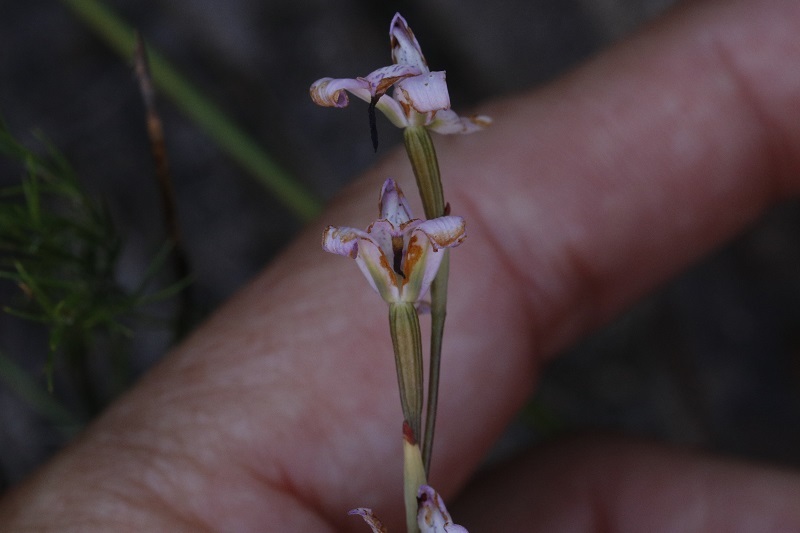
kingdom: Plantae
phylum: Tracheophyta
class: Liliopsida
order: Asparagales
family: Orchidaceae
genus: Disa
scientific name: Disa bifida
